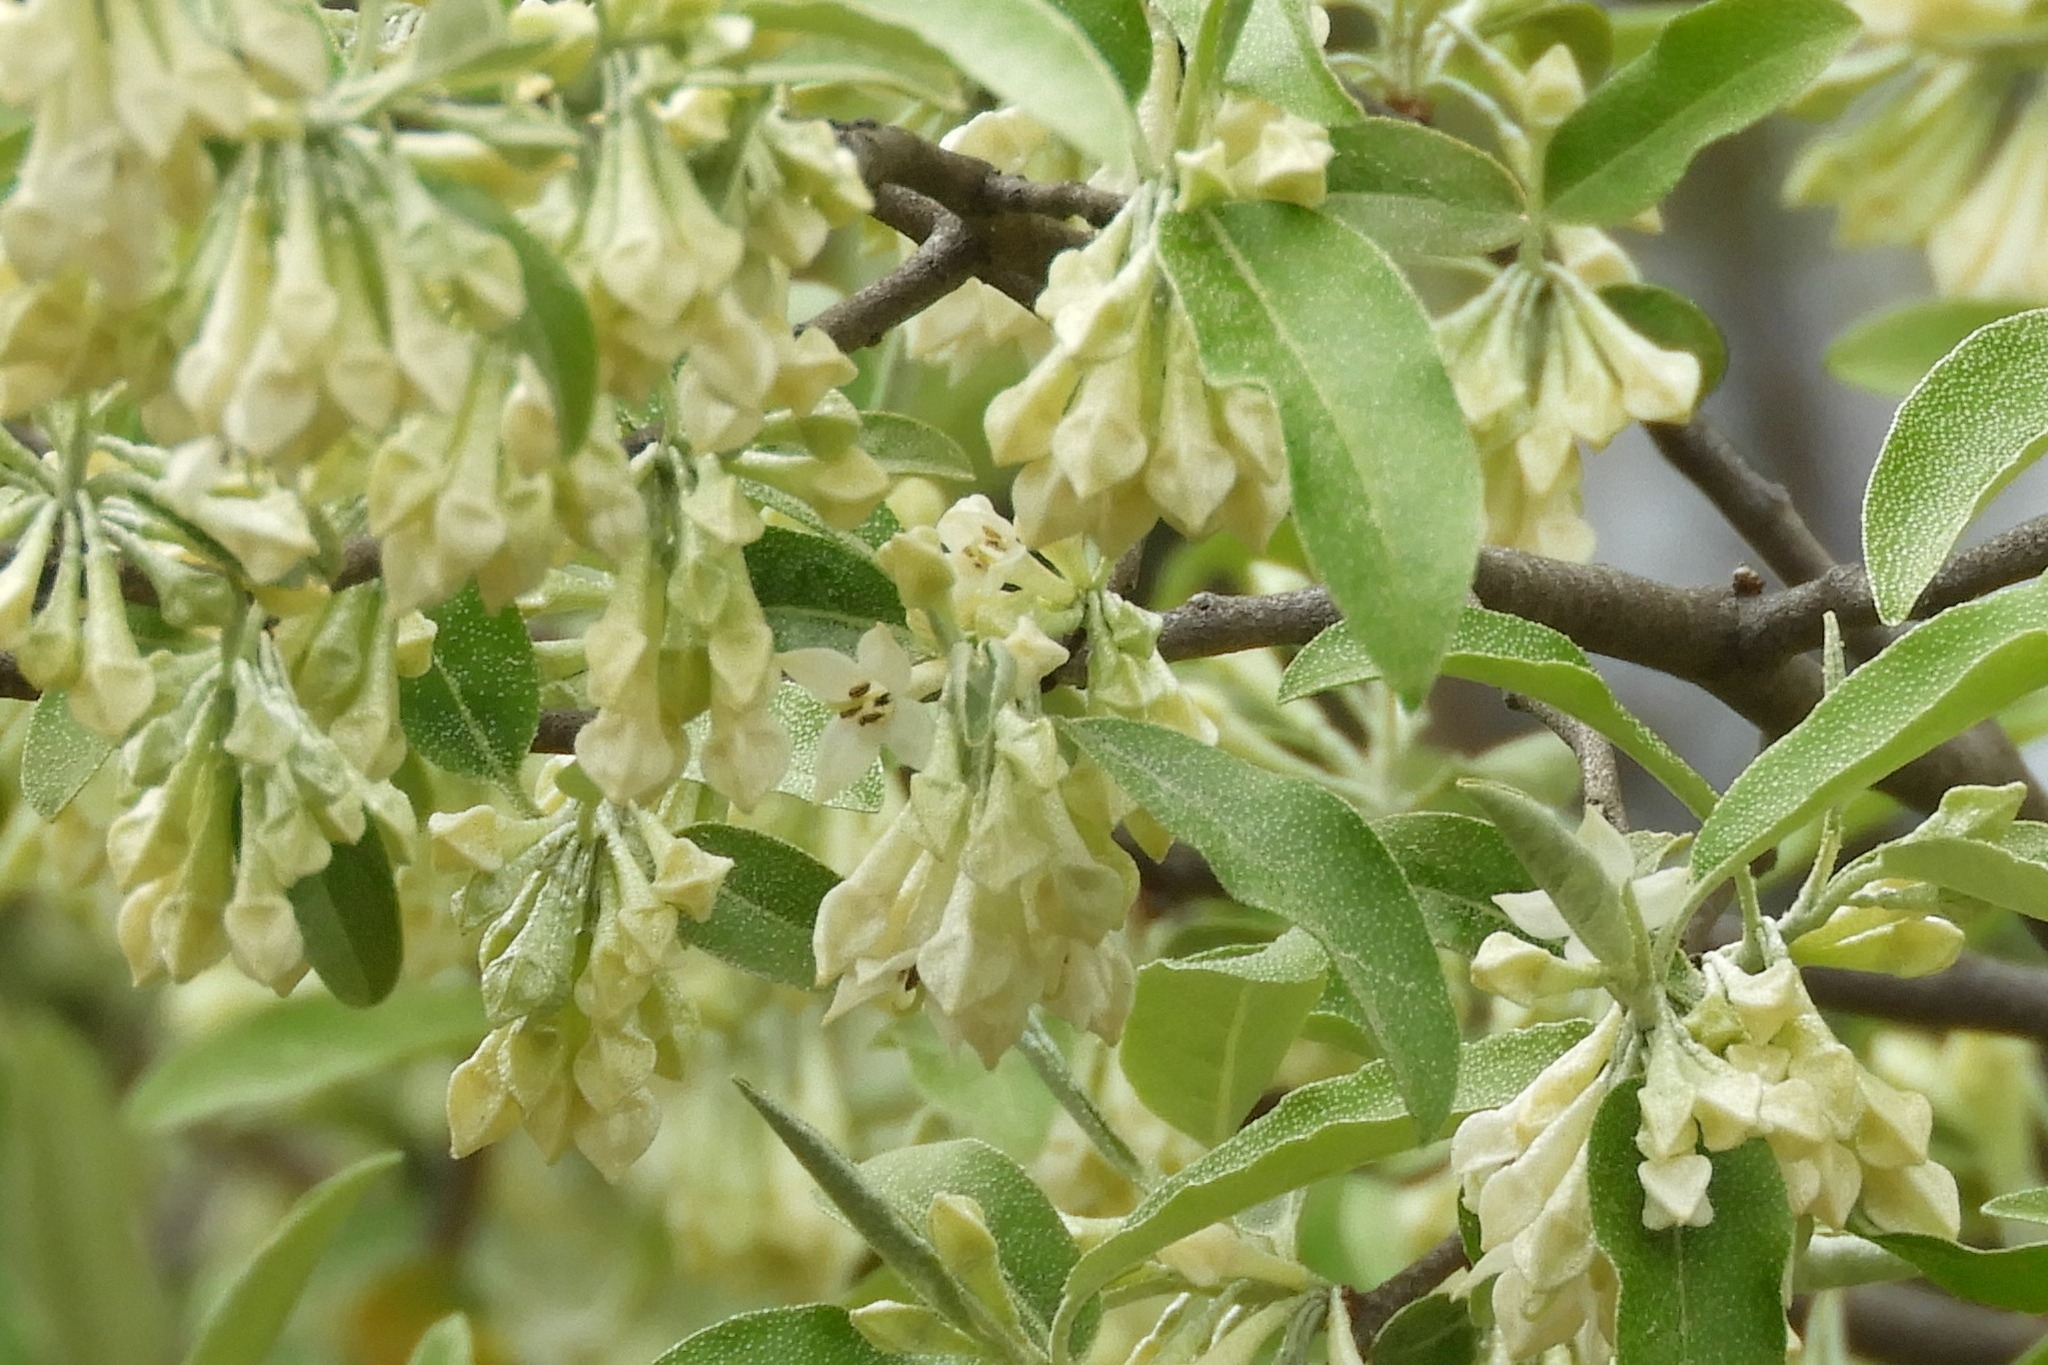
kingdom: Plantae
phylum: Tracheophyta
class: Magnoliopsida
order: Rosales
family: Elaeagnaceae
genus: Elaeagnus
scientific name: Elaeagnus umbellata
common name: Autumn olive
